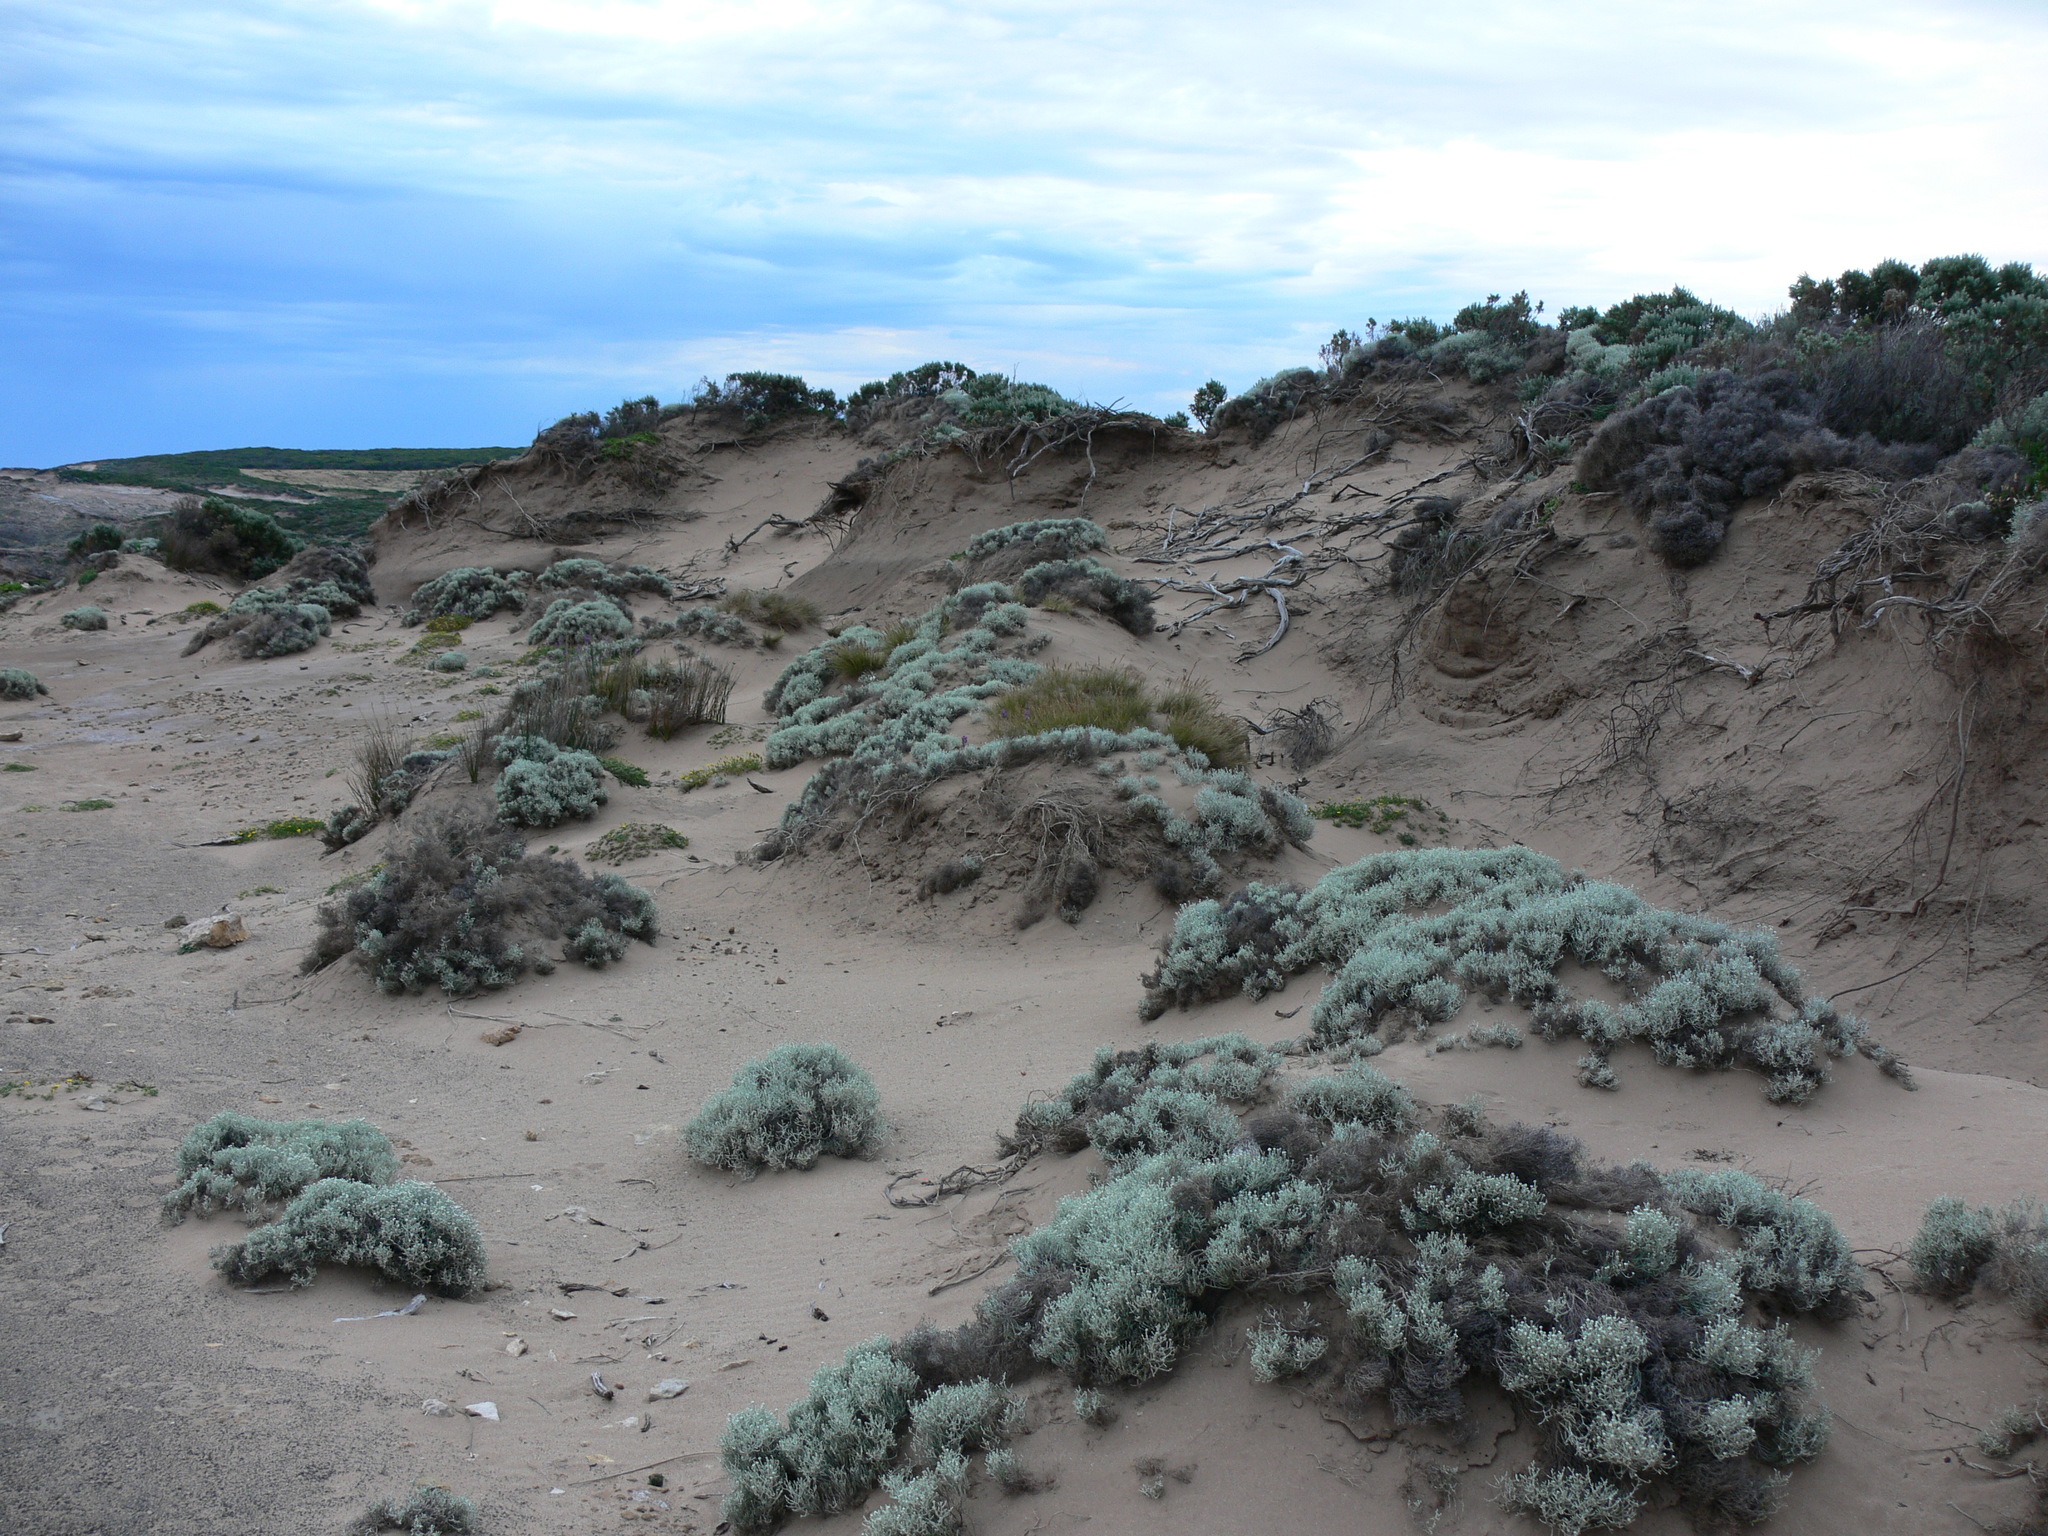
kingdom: Plantae
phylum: Tracheophyta
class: Magnoliopsida
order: Asterales
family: Asteraceae
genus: Calocephalus
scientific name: Calocephalus brownii
